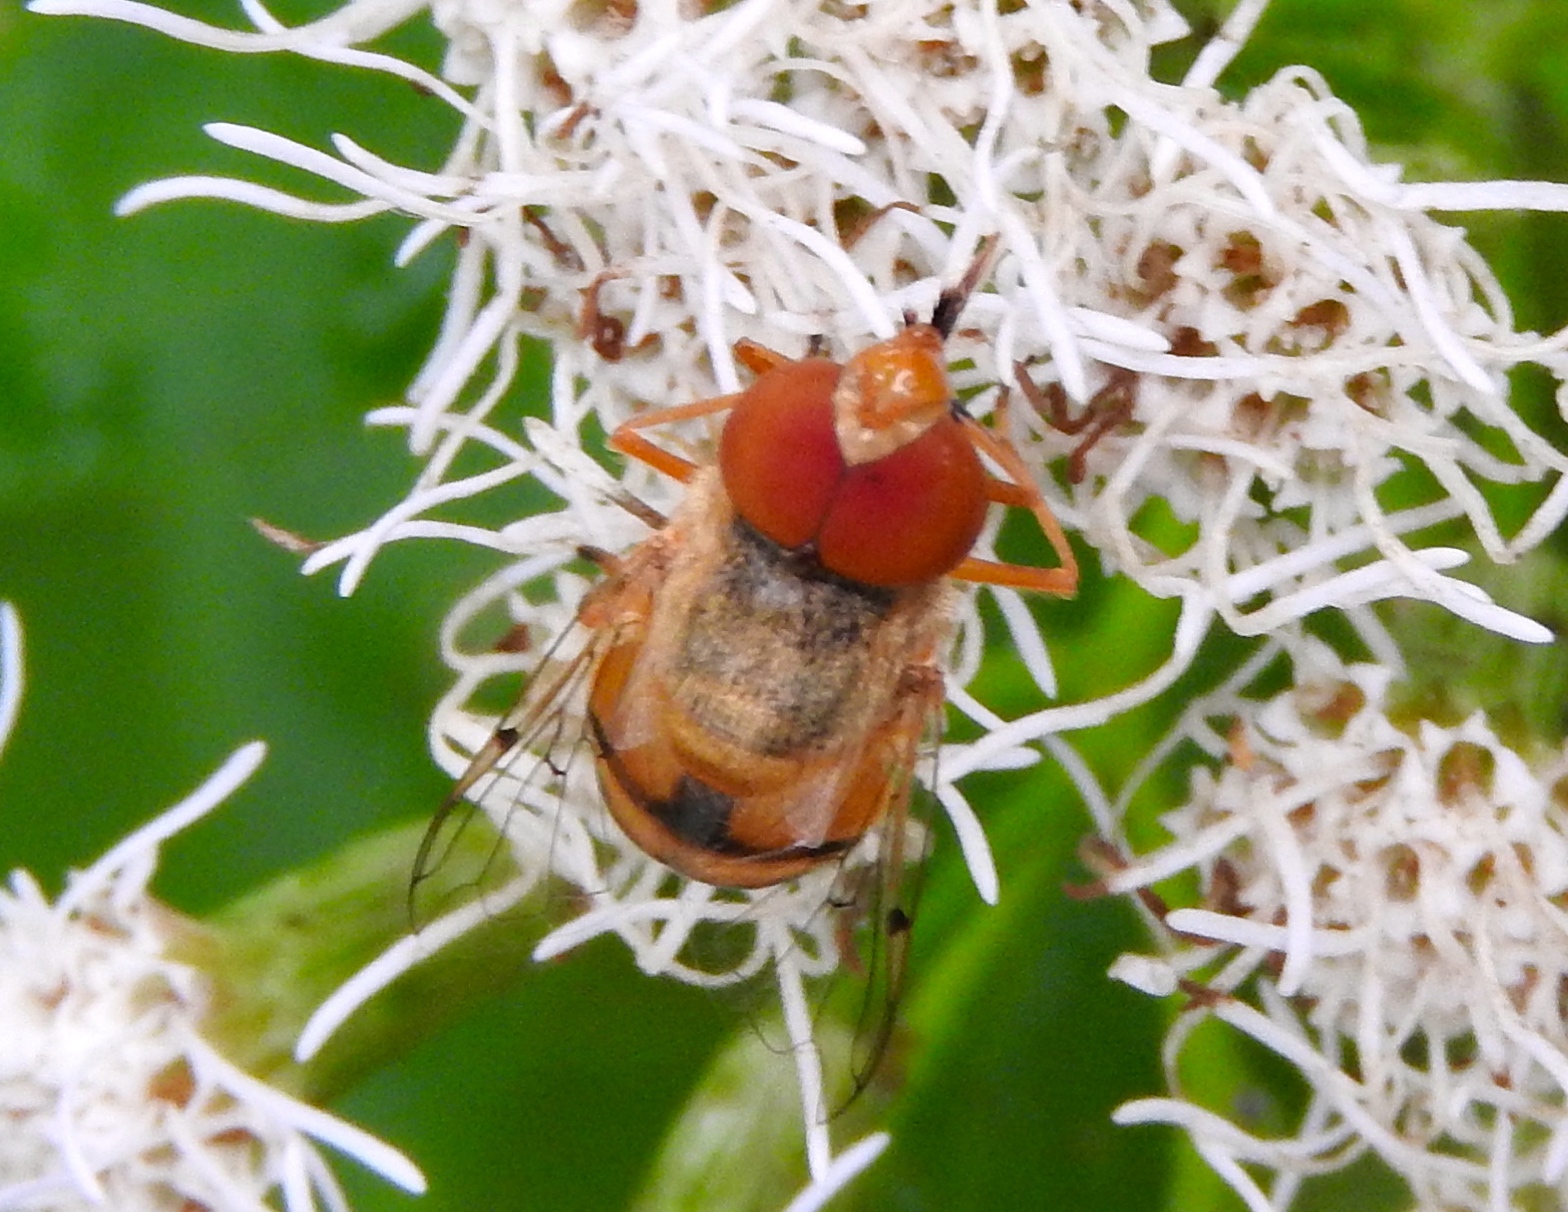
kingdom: Animalia
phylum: Arthropoda
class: Insecta
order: Diptera
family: Syrphidae
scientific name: Syrphidae
